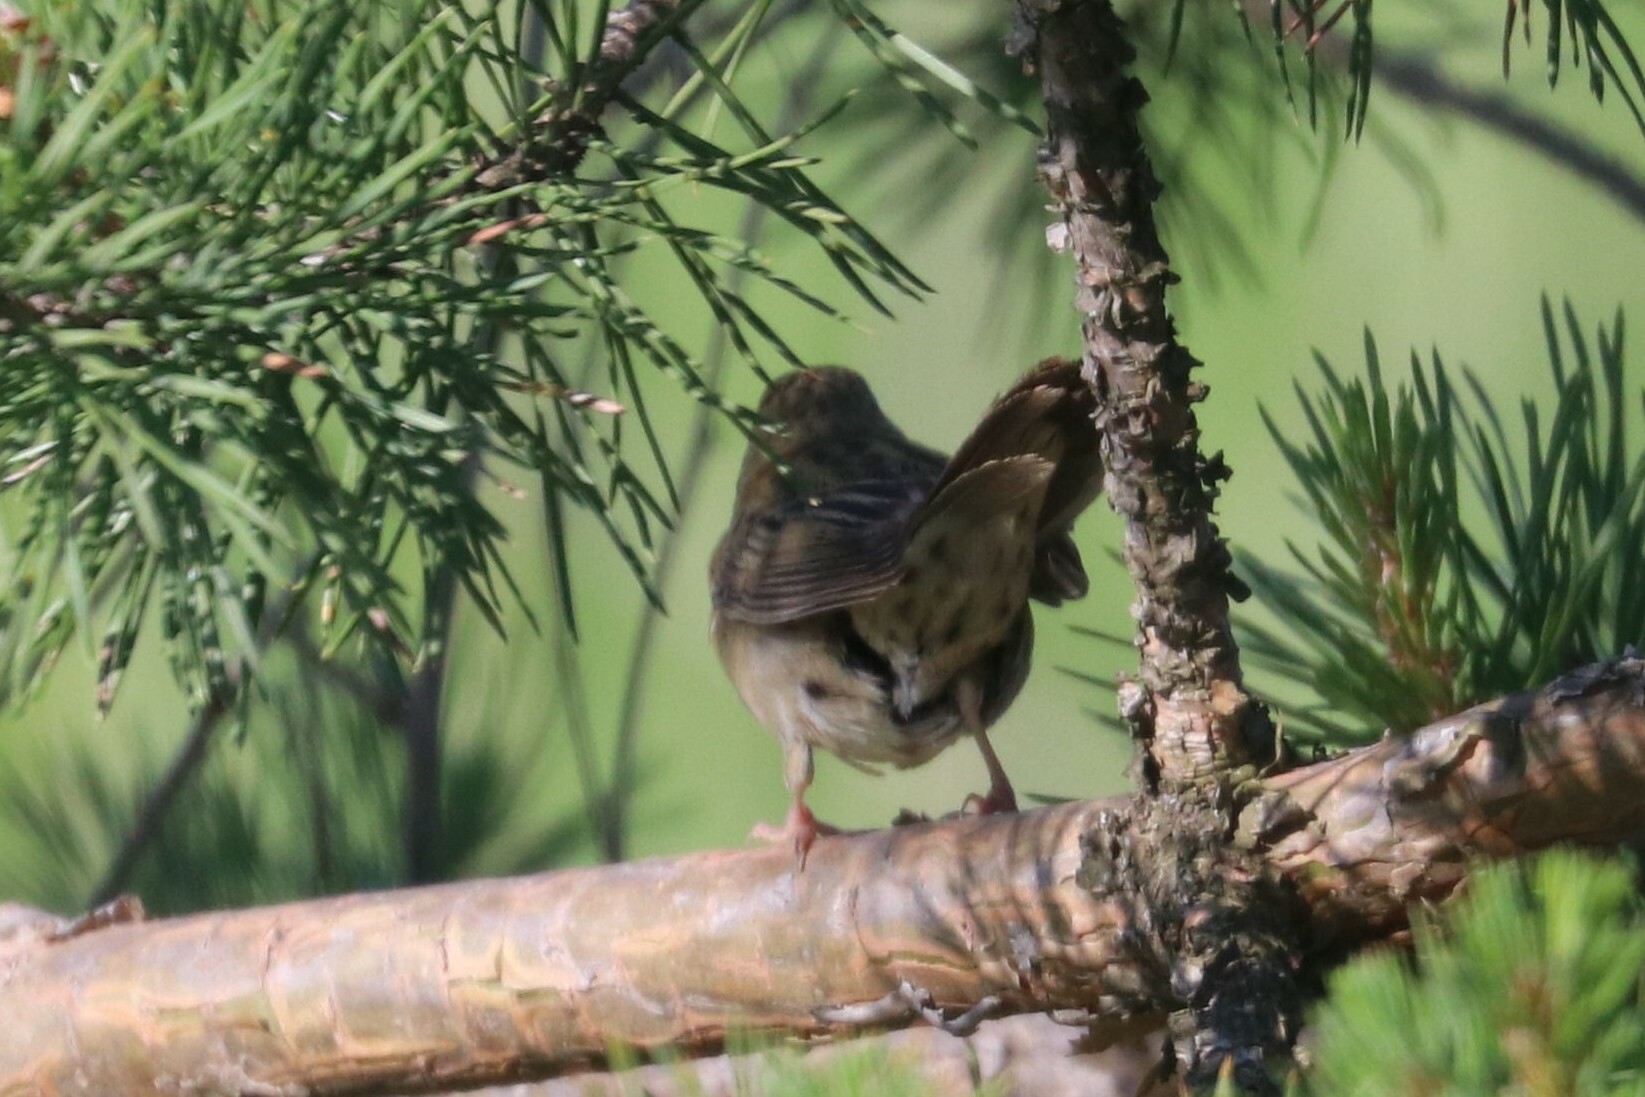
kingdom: Animalia
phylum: Chordata
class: Aves
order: Passeriformes
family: Locustellidae
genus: Locustella
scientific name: Locustella naevia
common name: Common grasshopper warbler
